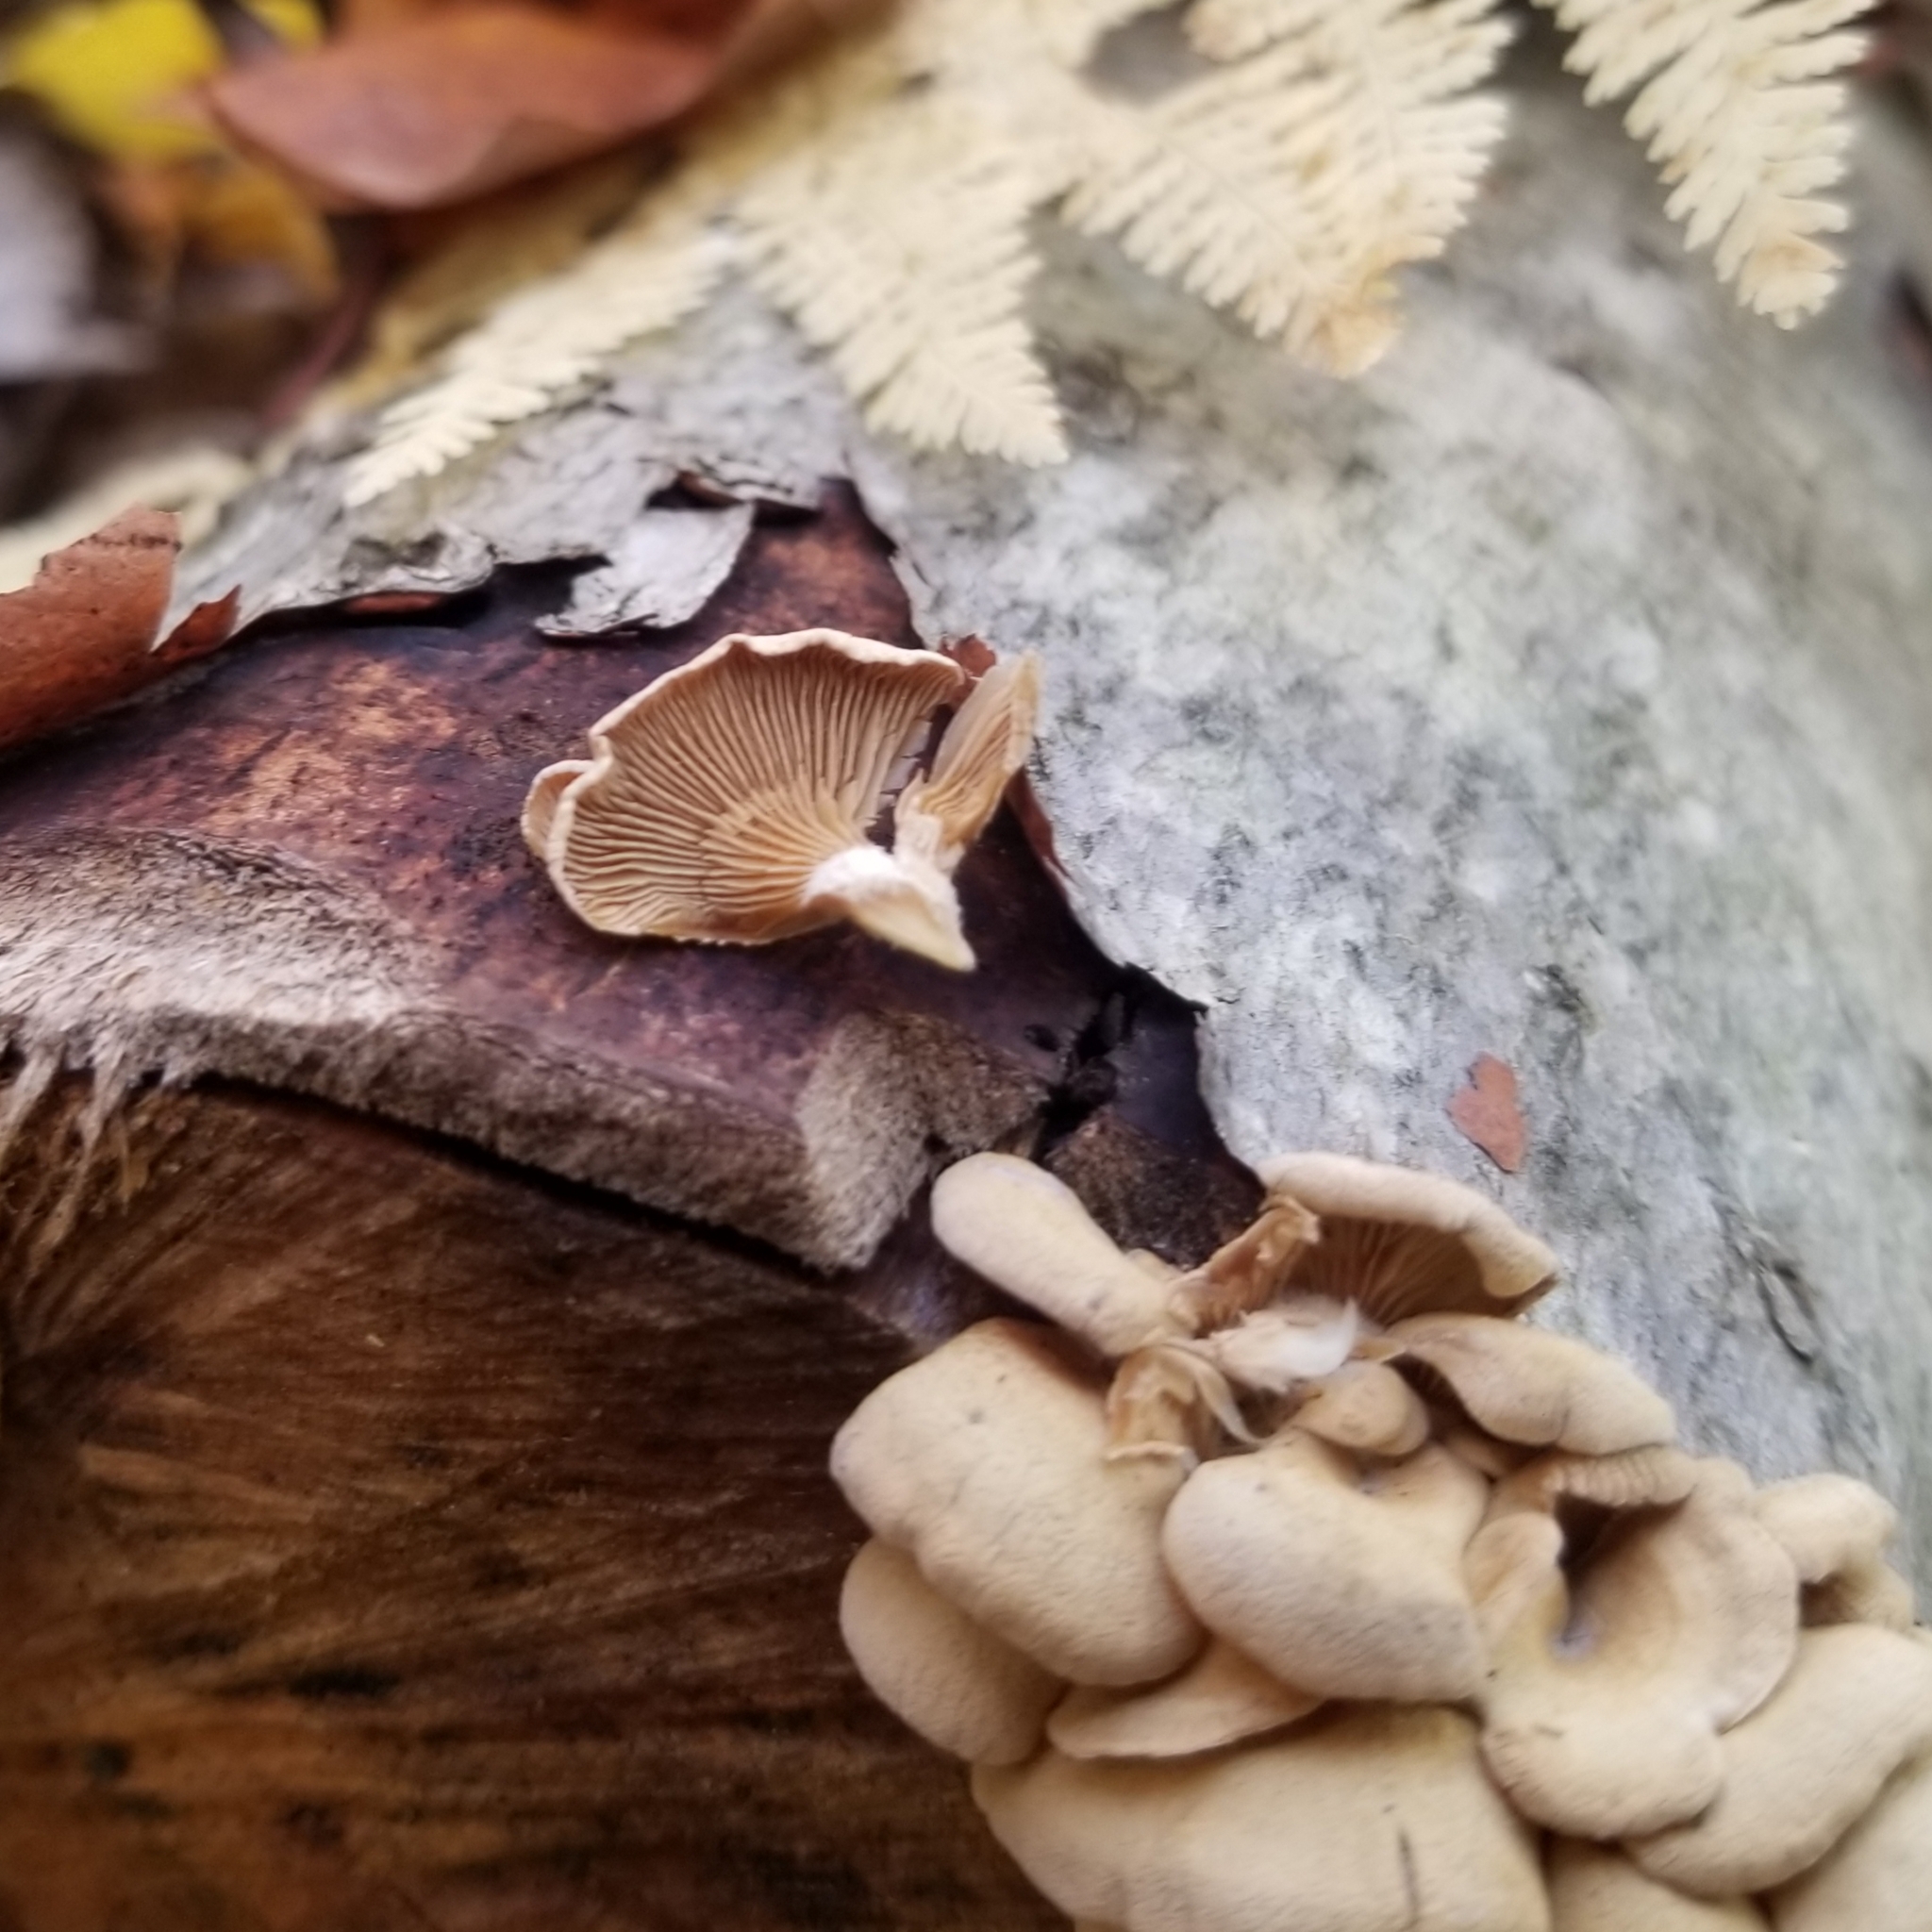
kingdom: Fungi
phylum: Basidiomycota
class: Agaricomycetes
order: Agaricales
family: Mycenaceae
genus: Panellus
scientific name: Panellus stipticus
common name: Bitter oysterling
